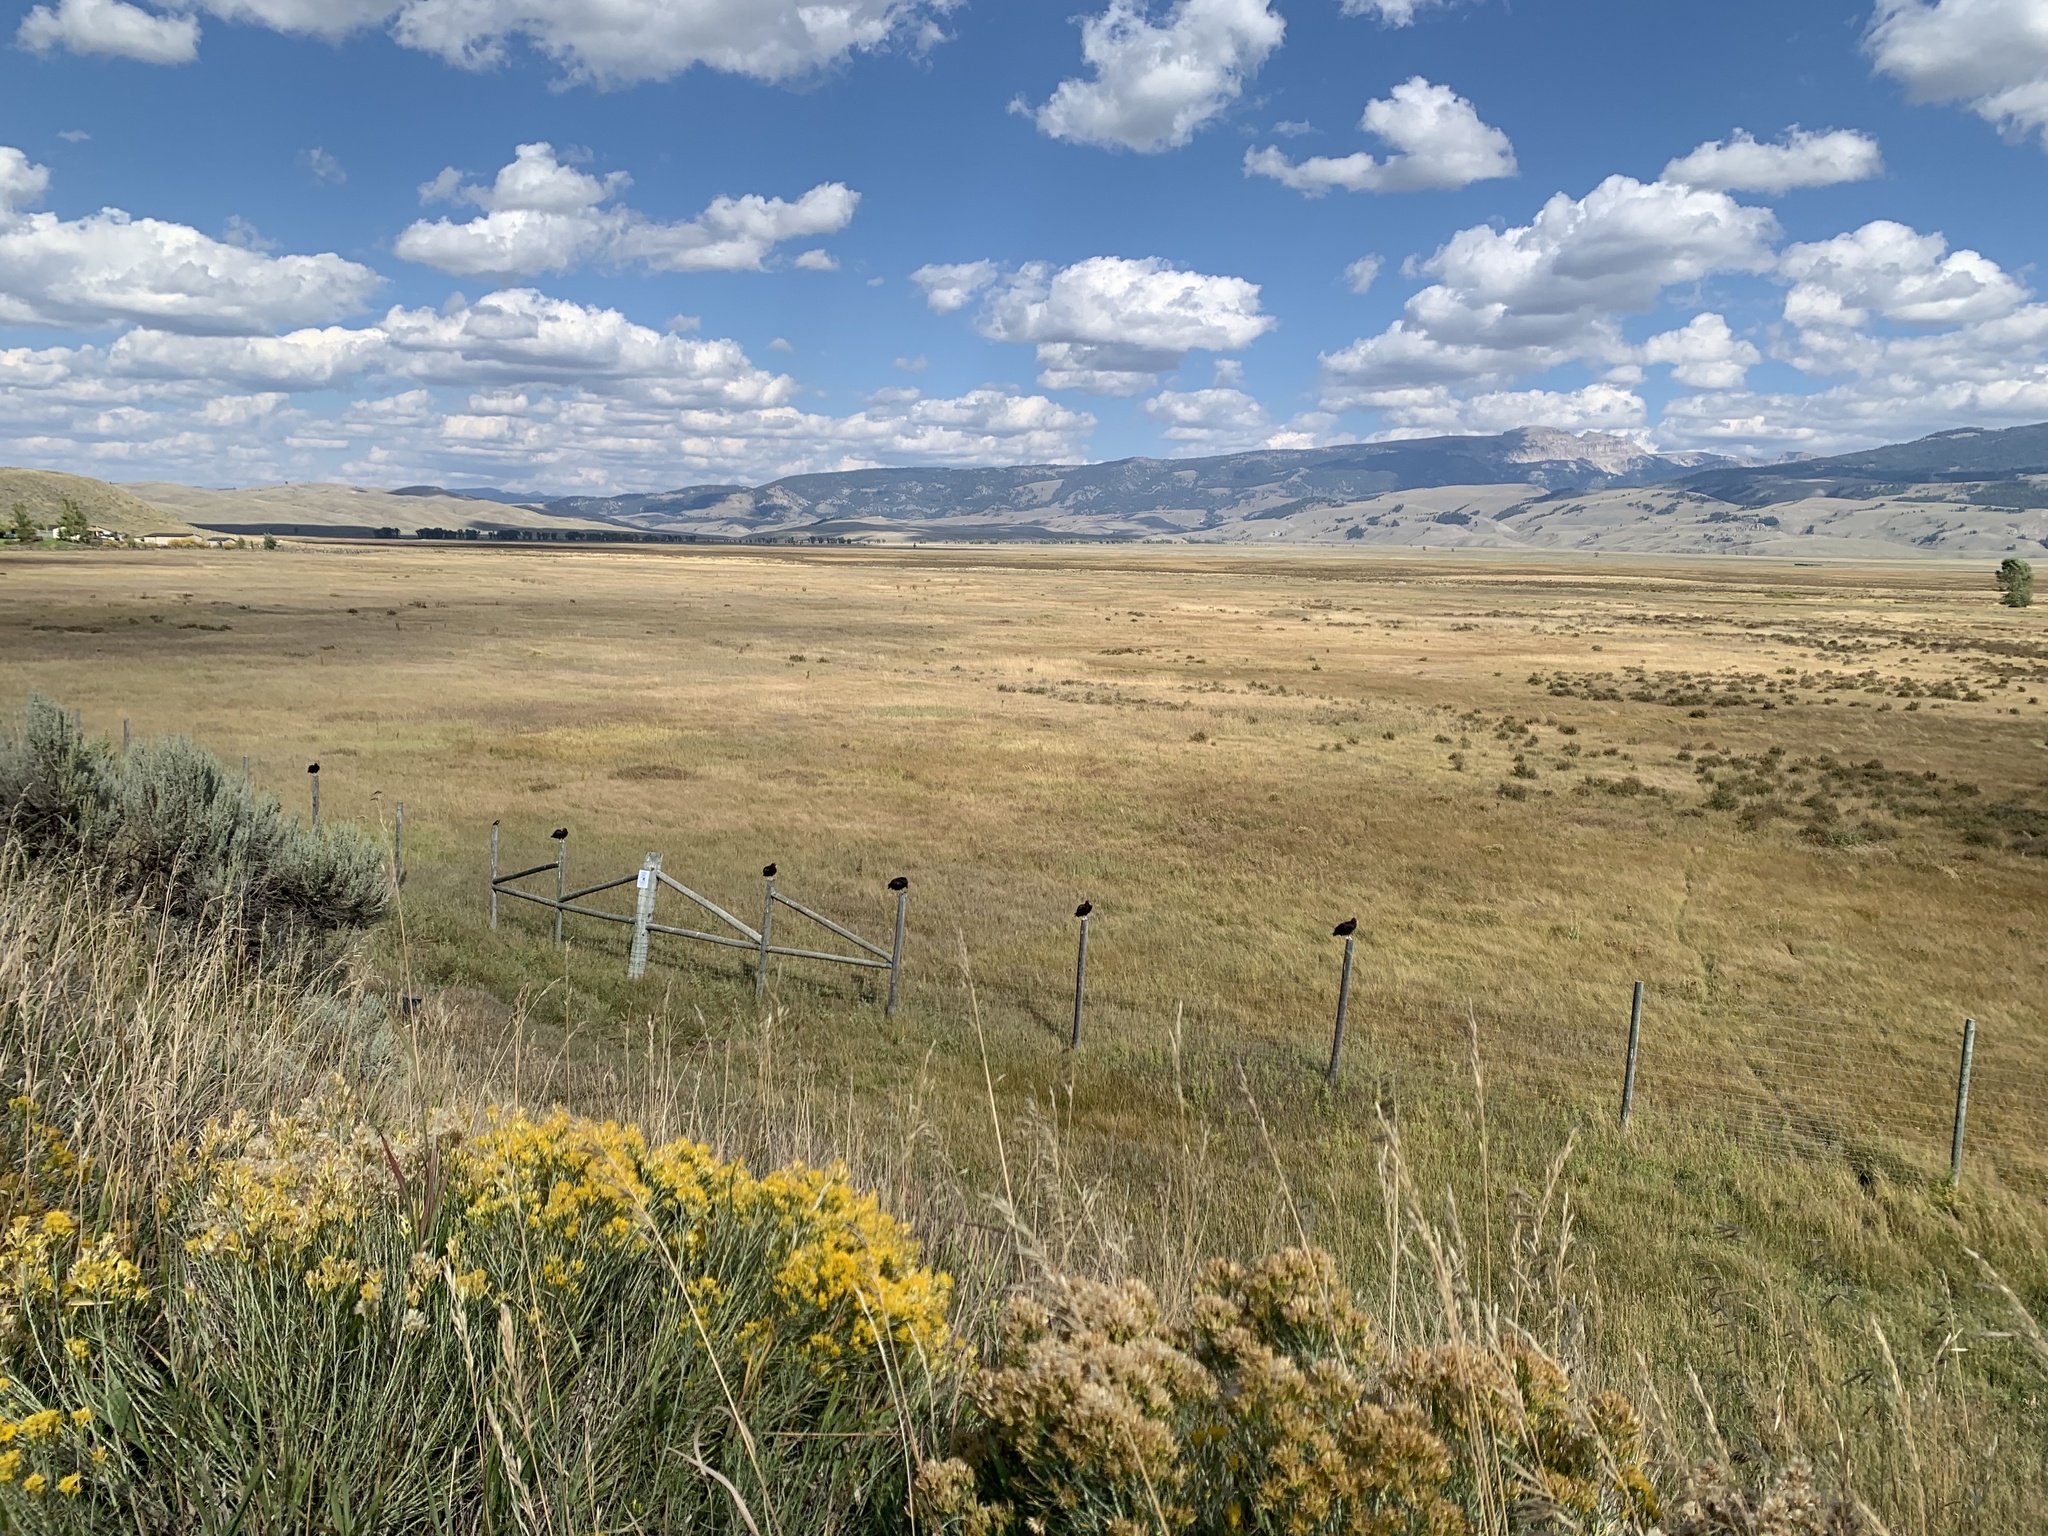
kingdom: Animalia
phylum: Chordata
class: Aves
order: Accipitriformes
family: Cathartidae
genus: Cathartes
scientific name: Cathartes aura
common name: Turkey vulture
